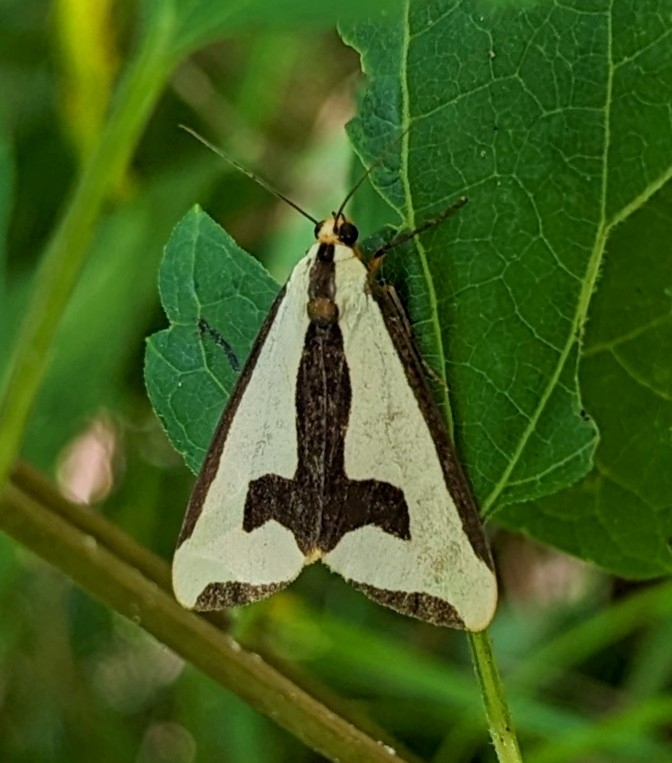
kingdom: Animalia
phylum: Arthropoda
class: Insecta
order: Lepidoptera
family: Erebidae
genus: Haploa
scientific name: Haploa clymene
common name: Clymene moth
